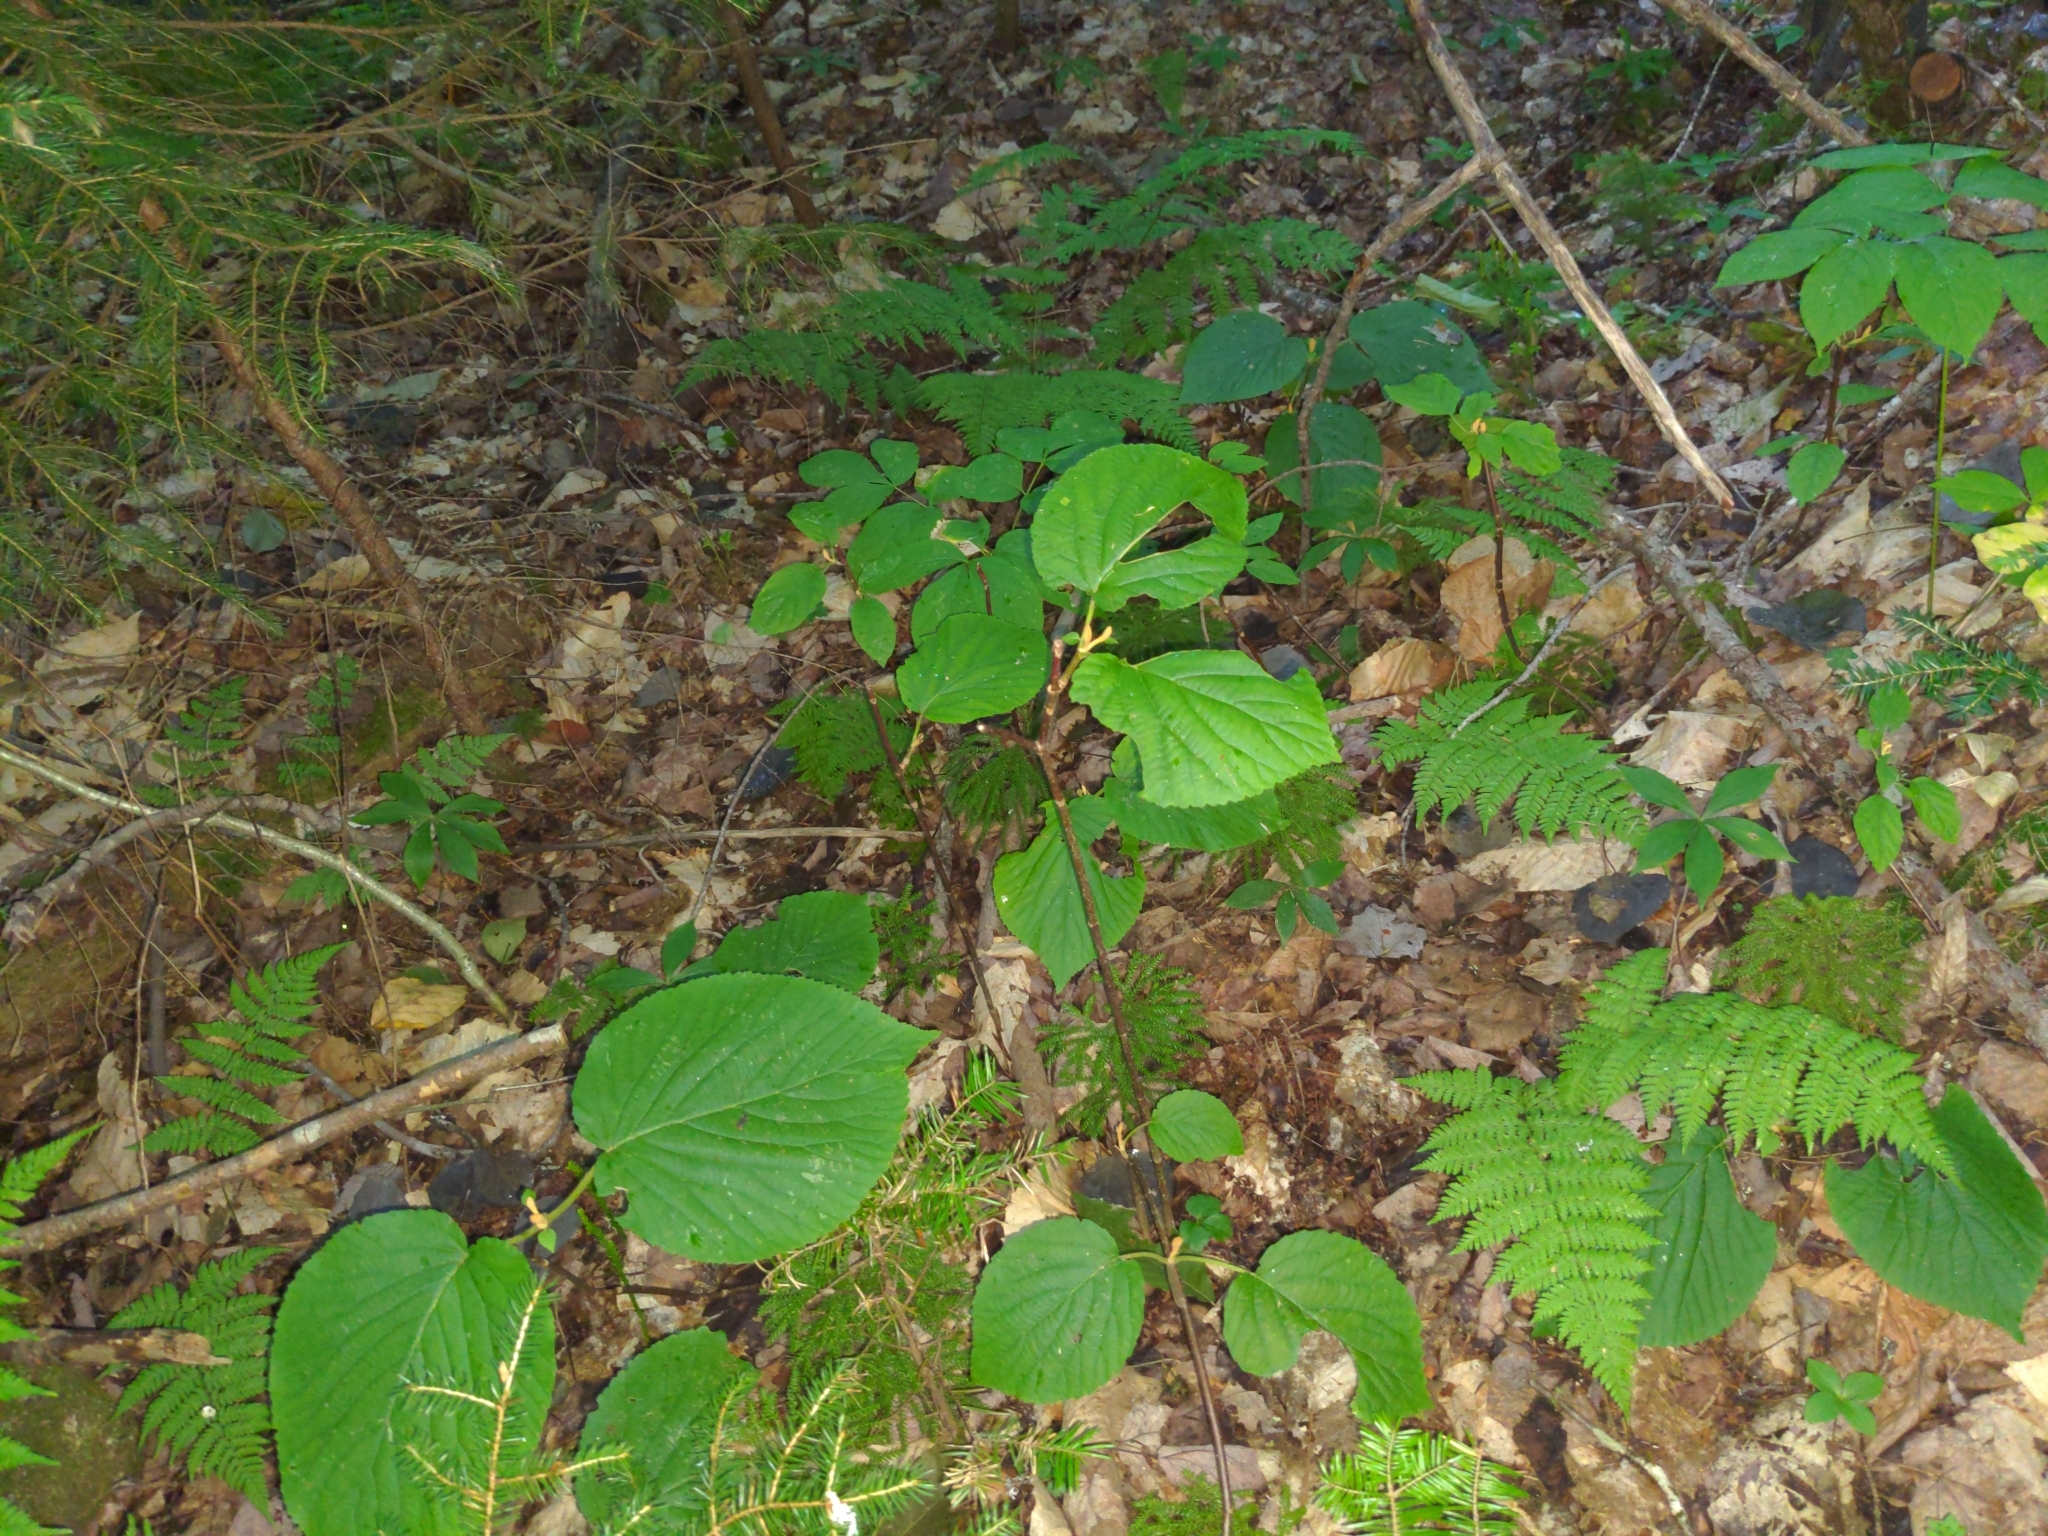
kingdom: Plantae
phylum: Tracheophyta
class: Magnoliopsida
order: Dipsacales
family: Viburnaceae
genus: Viburnum
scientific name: Viburnum lantanoides
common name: Hobblebush
